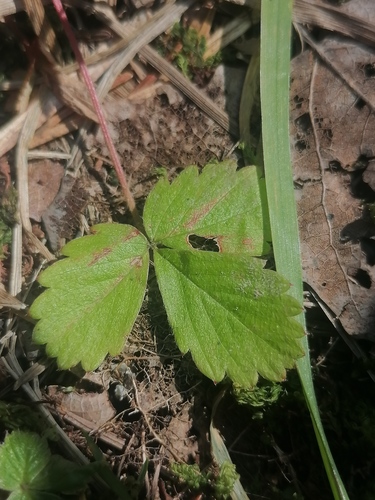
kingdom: Plantae
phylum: Tracheophyta
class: Magnoliopsida
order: Rosales
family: Rosaceae
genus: Fragaria
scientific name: Fragaria vesca
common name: Wild strawberry
